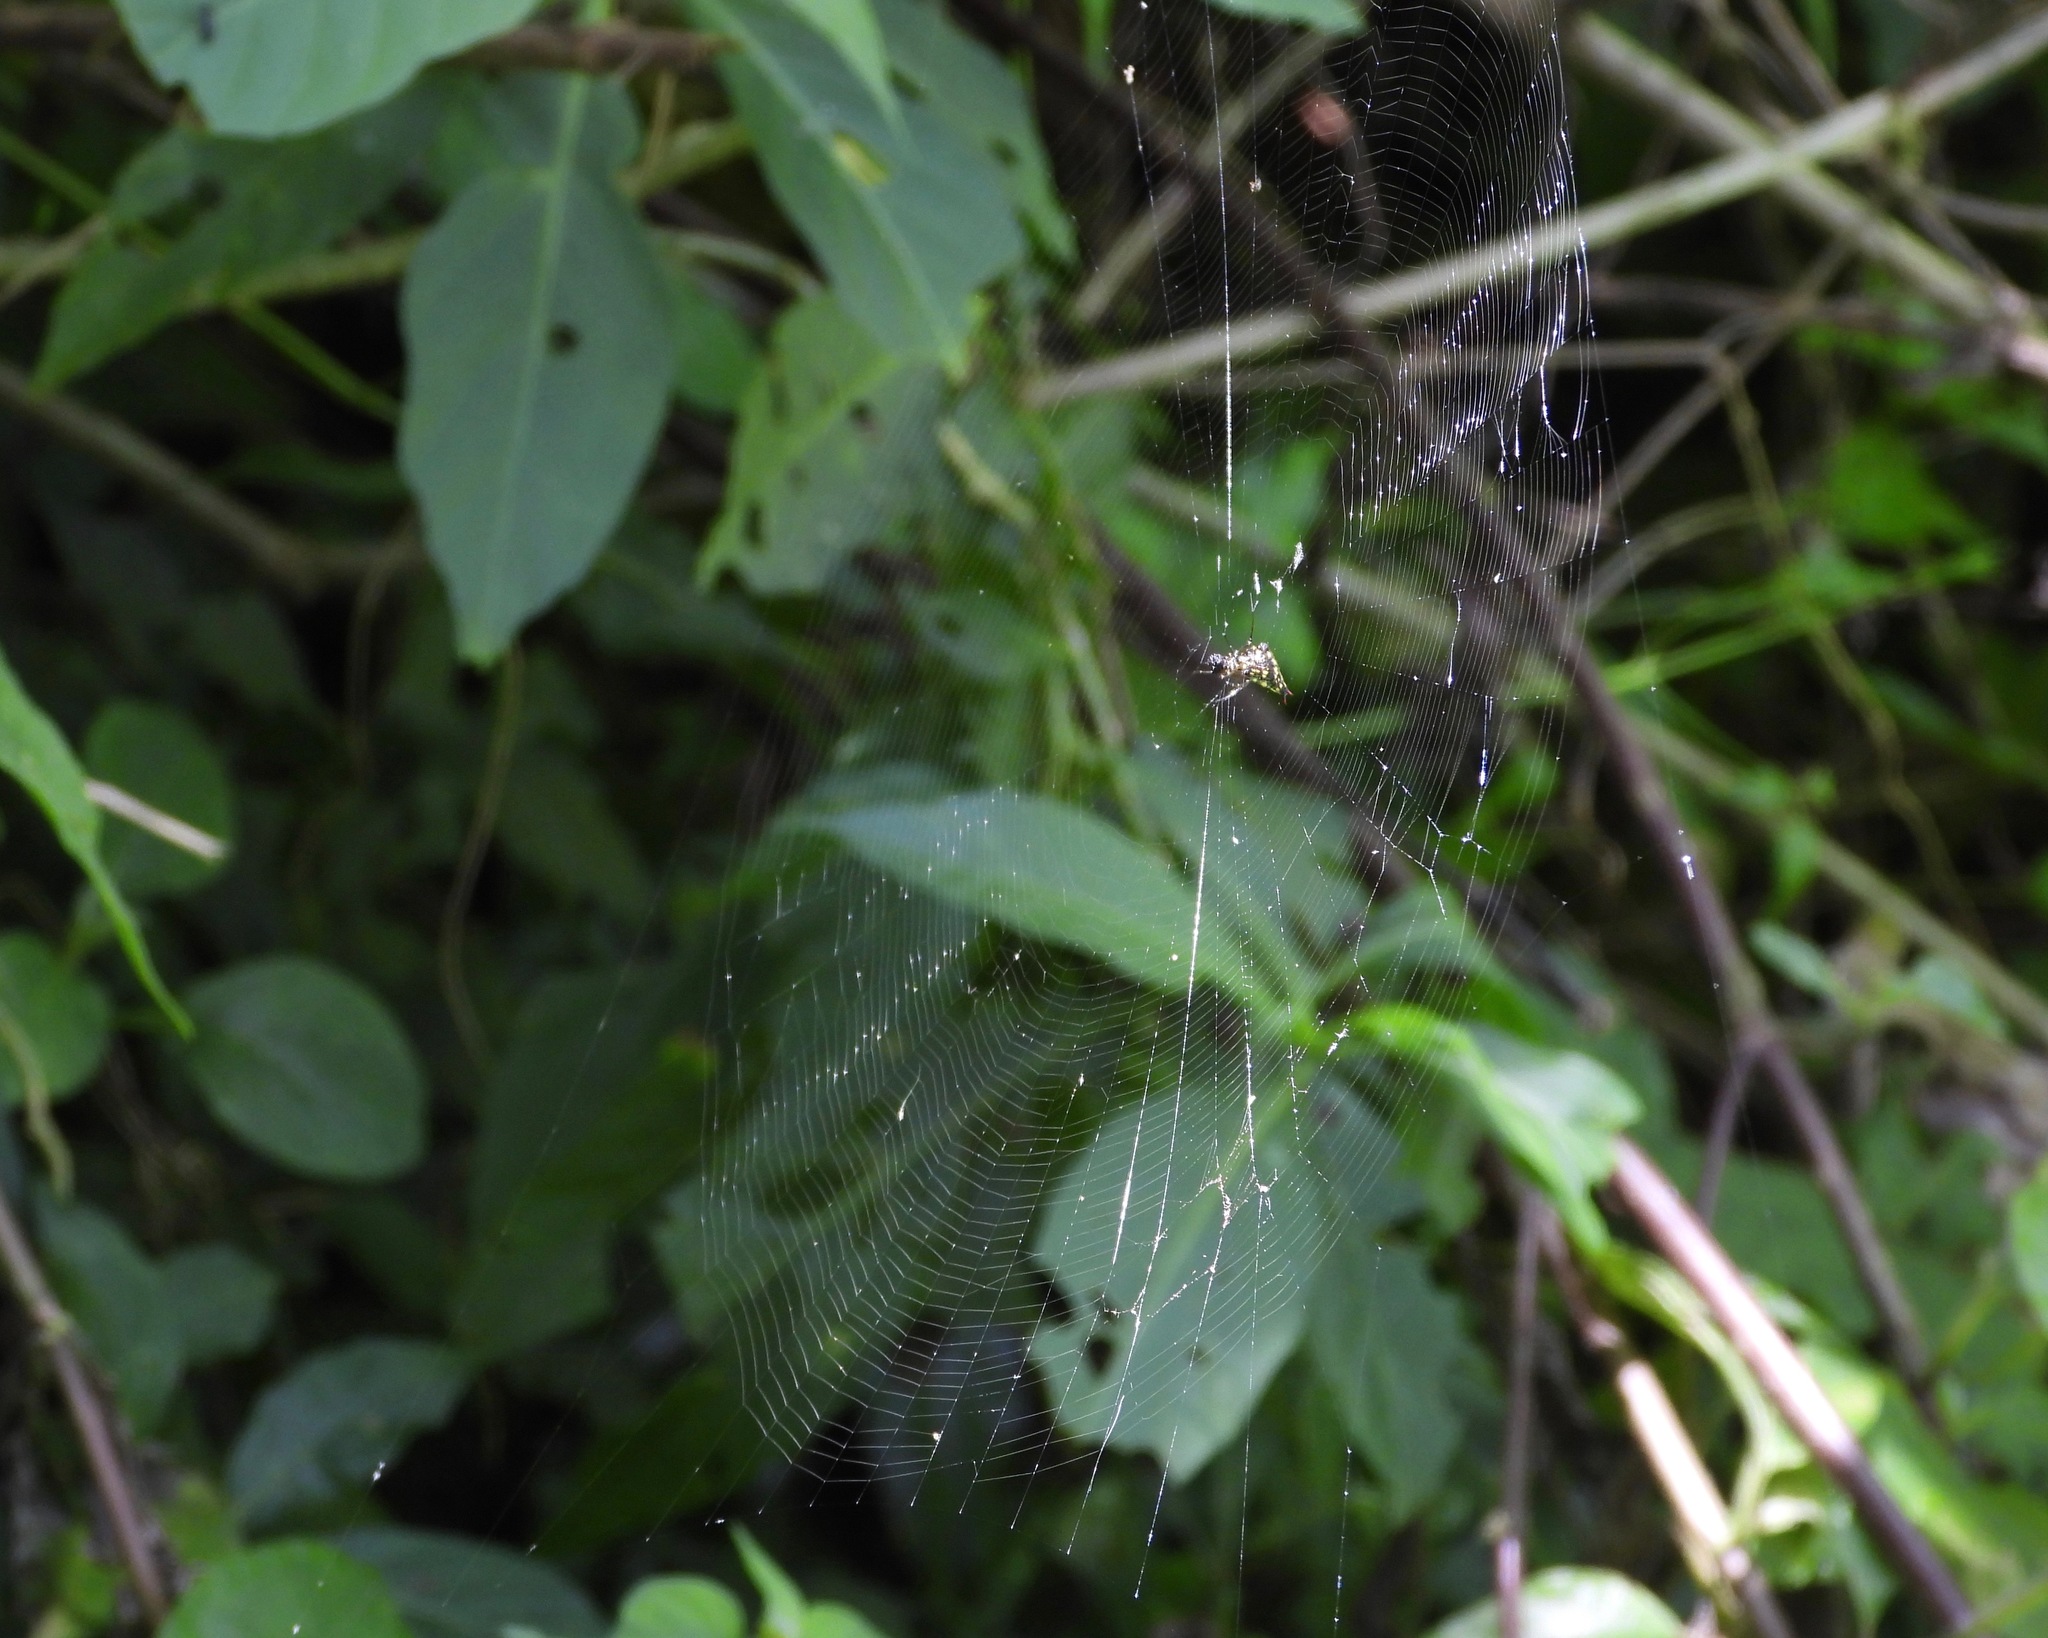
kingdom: Animalia
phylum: Arthropoda
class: Arachnida
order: Araneae
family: Araneidae
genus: Micrathena
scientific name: Micrathena lucasi
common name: Orb weavers
